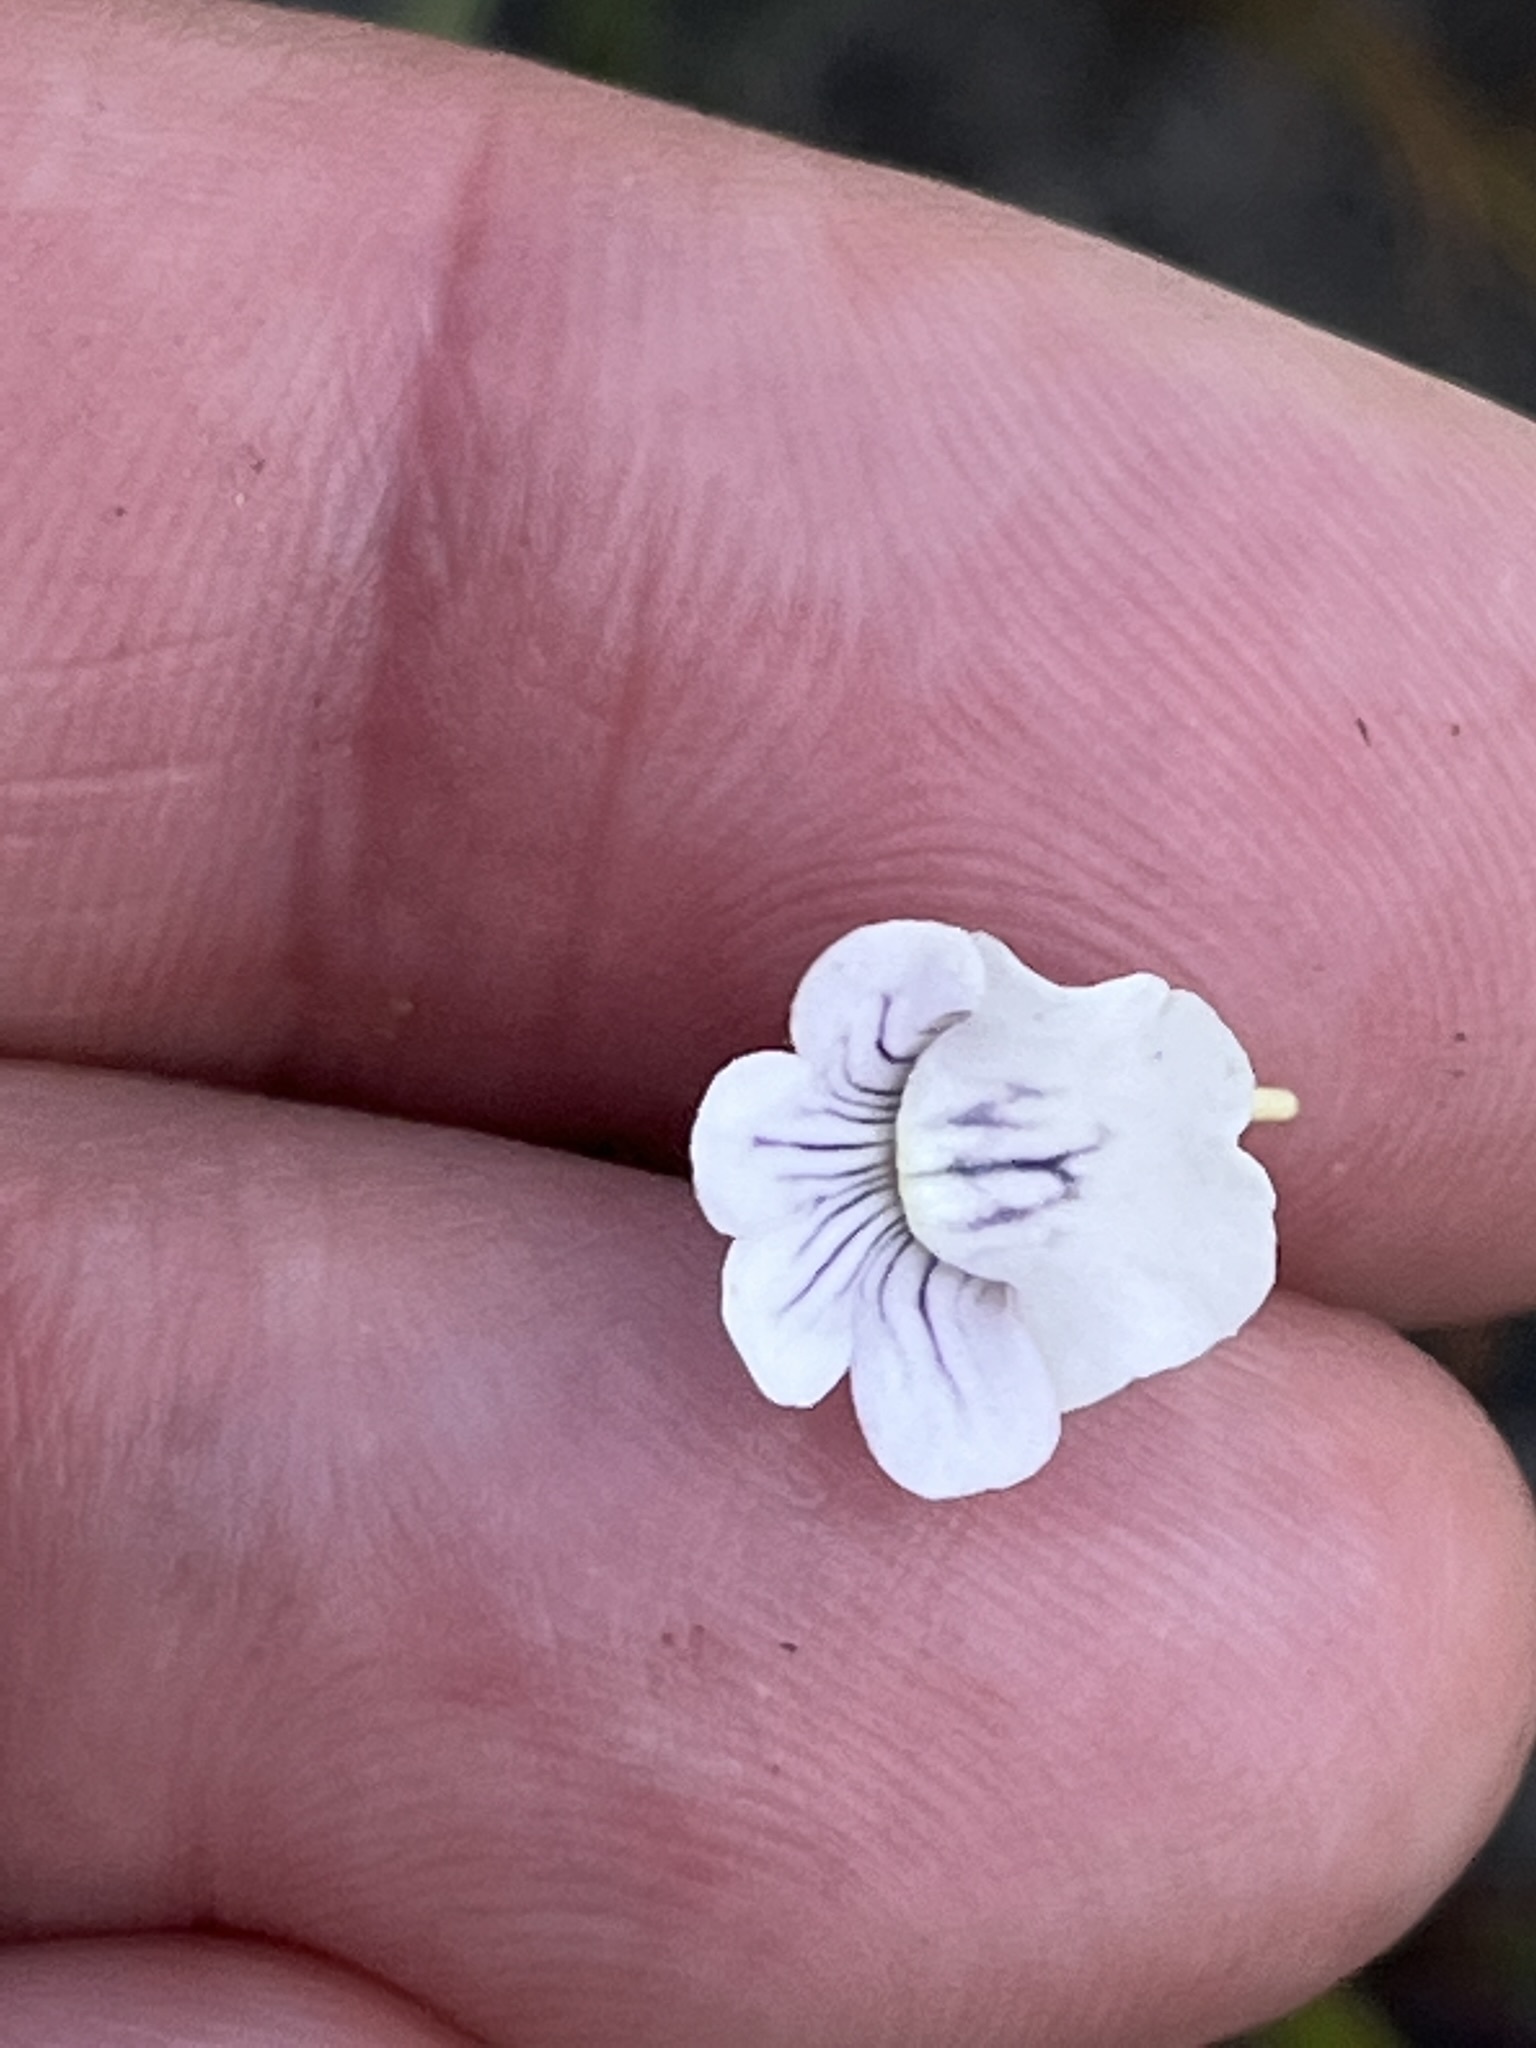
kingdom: Plantae
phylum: Tracheophyta
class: Magnoliopsida
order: Lamiales
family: Scrophulariaceae
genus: Nemesia
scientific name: Nemesia diffusa
